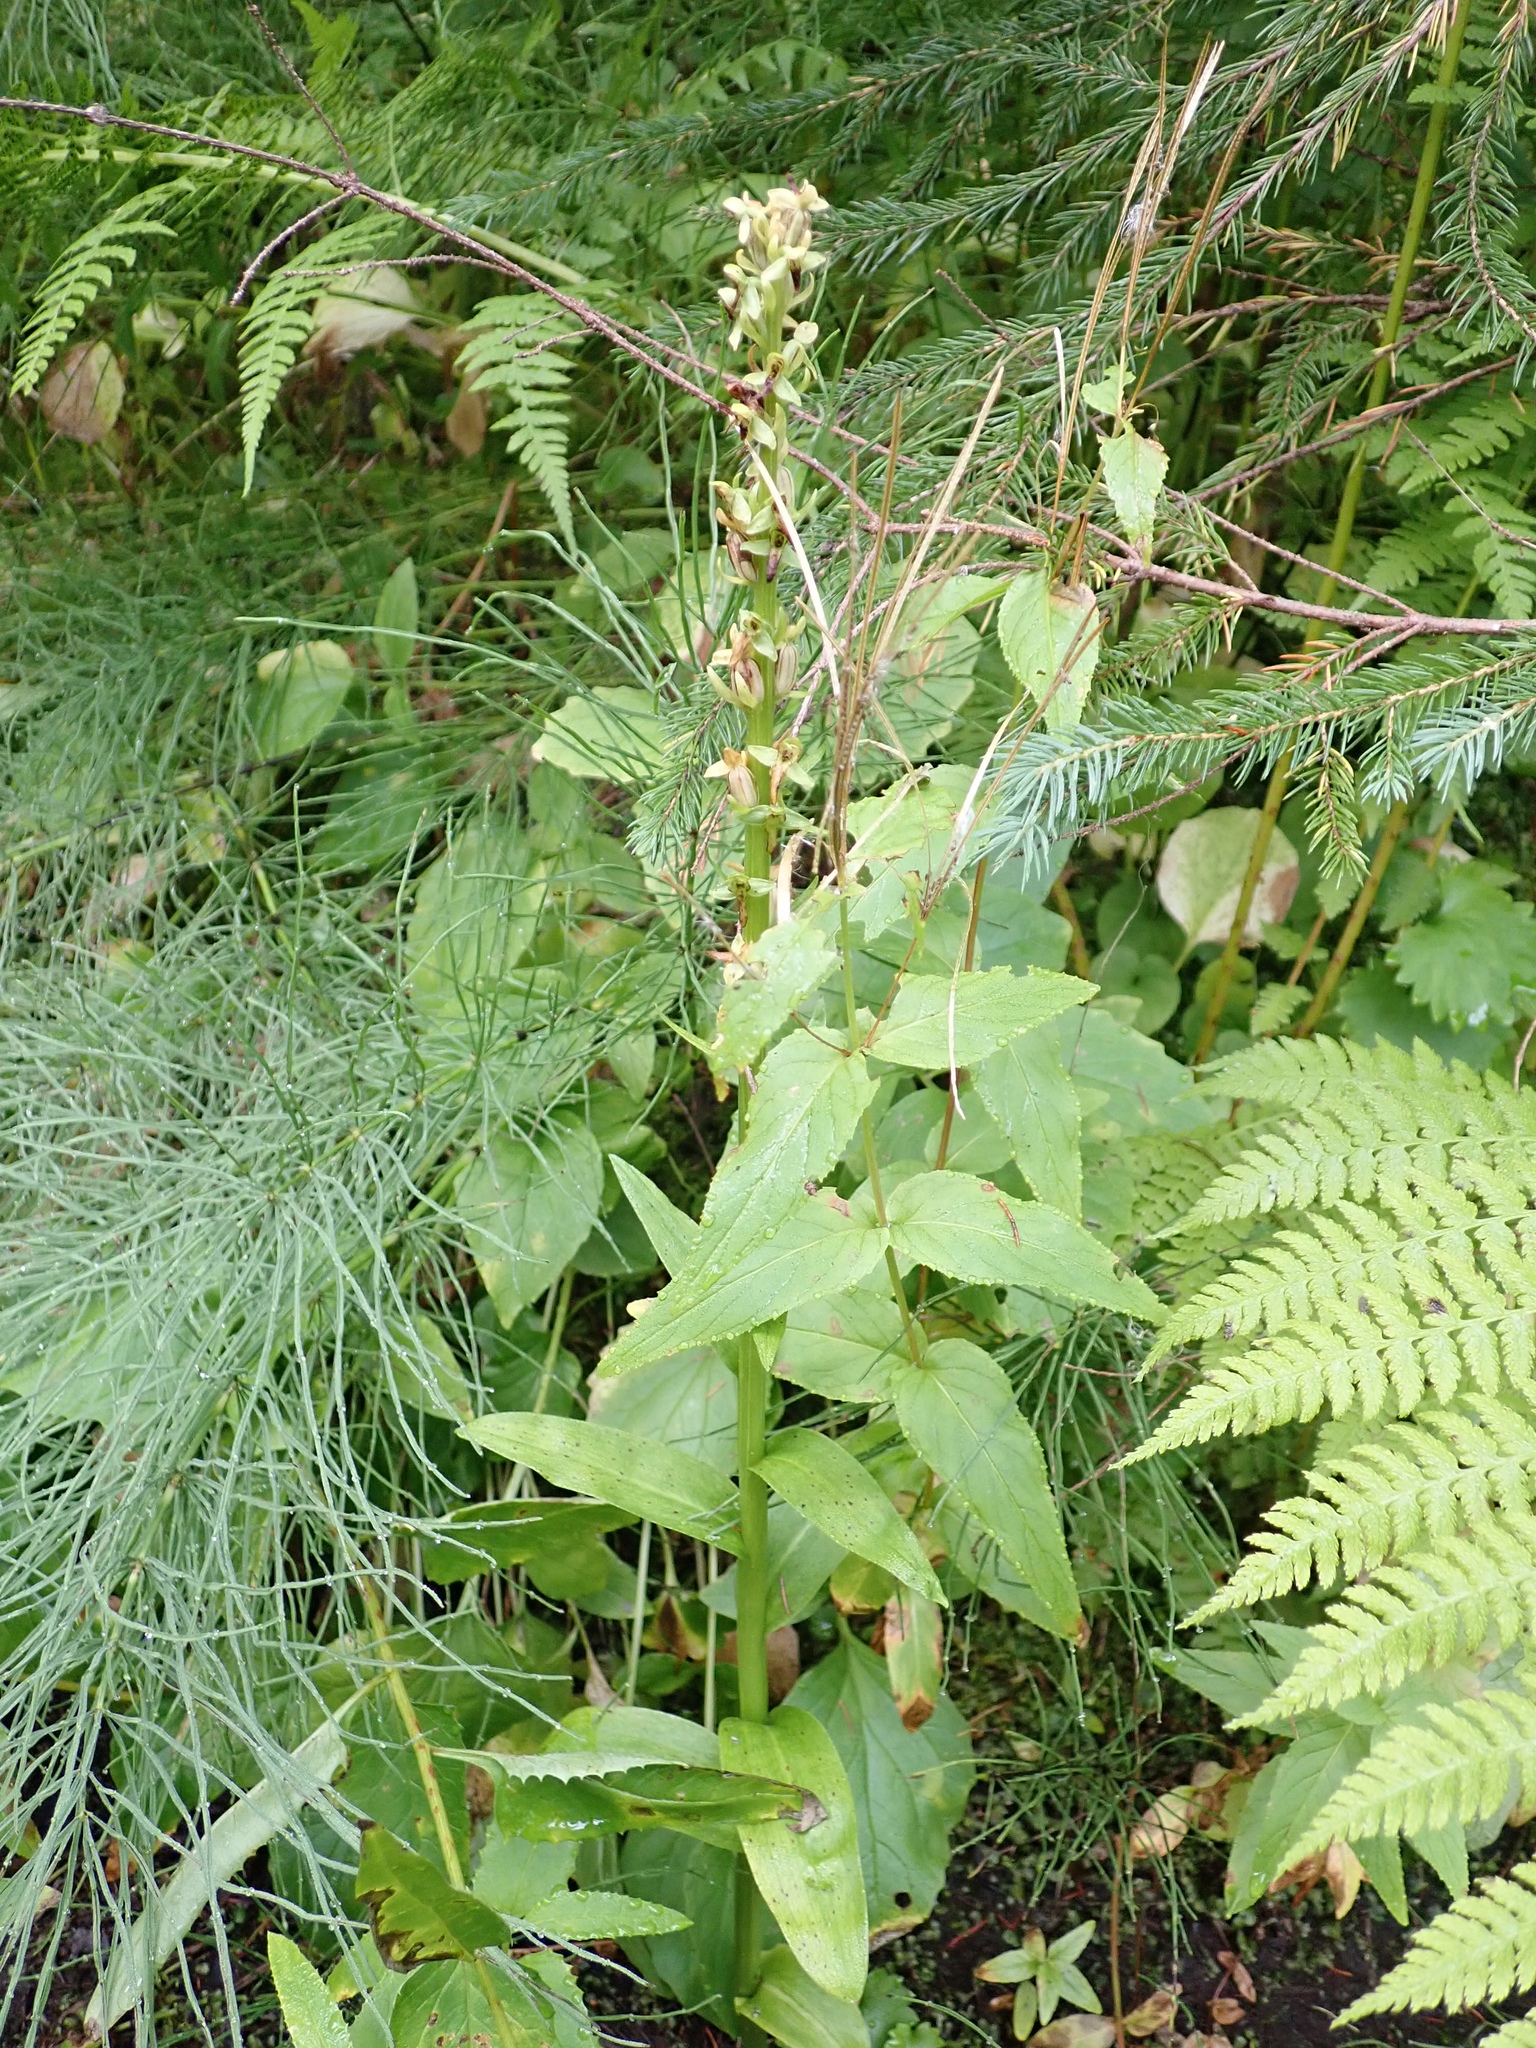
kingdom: Plantae
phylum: Tracheophyta
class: Liliopsida
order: Asparagales
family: Orchidaceae
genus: Platanthera
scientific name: Platanthera stricta
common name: Slender bog orchid
